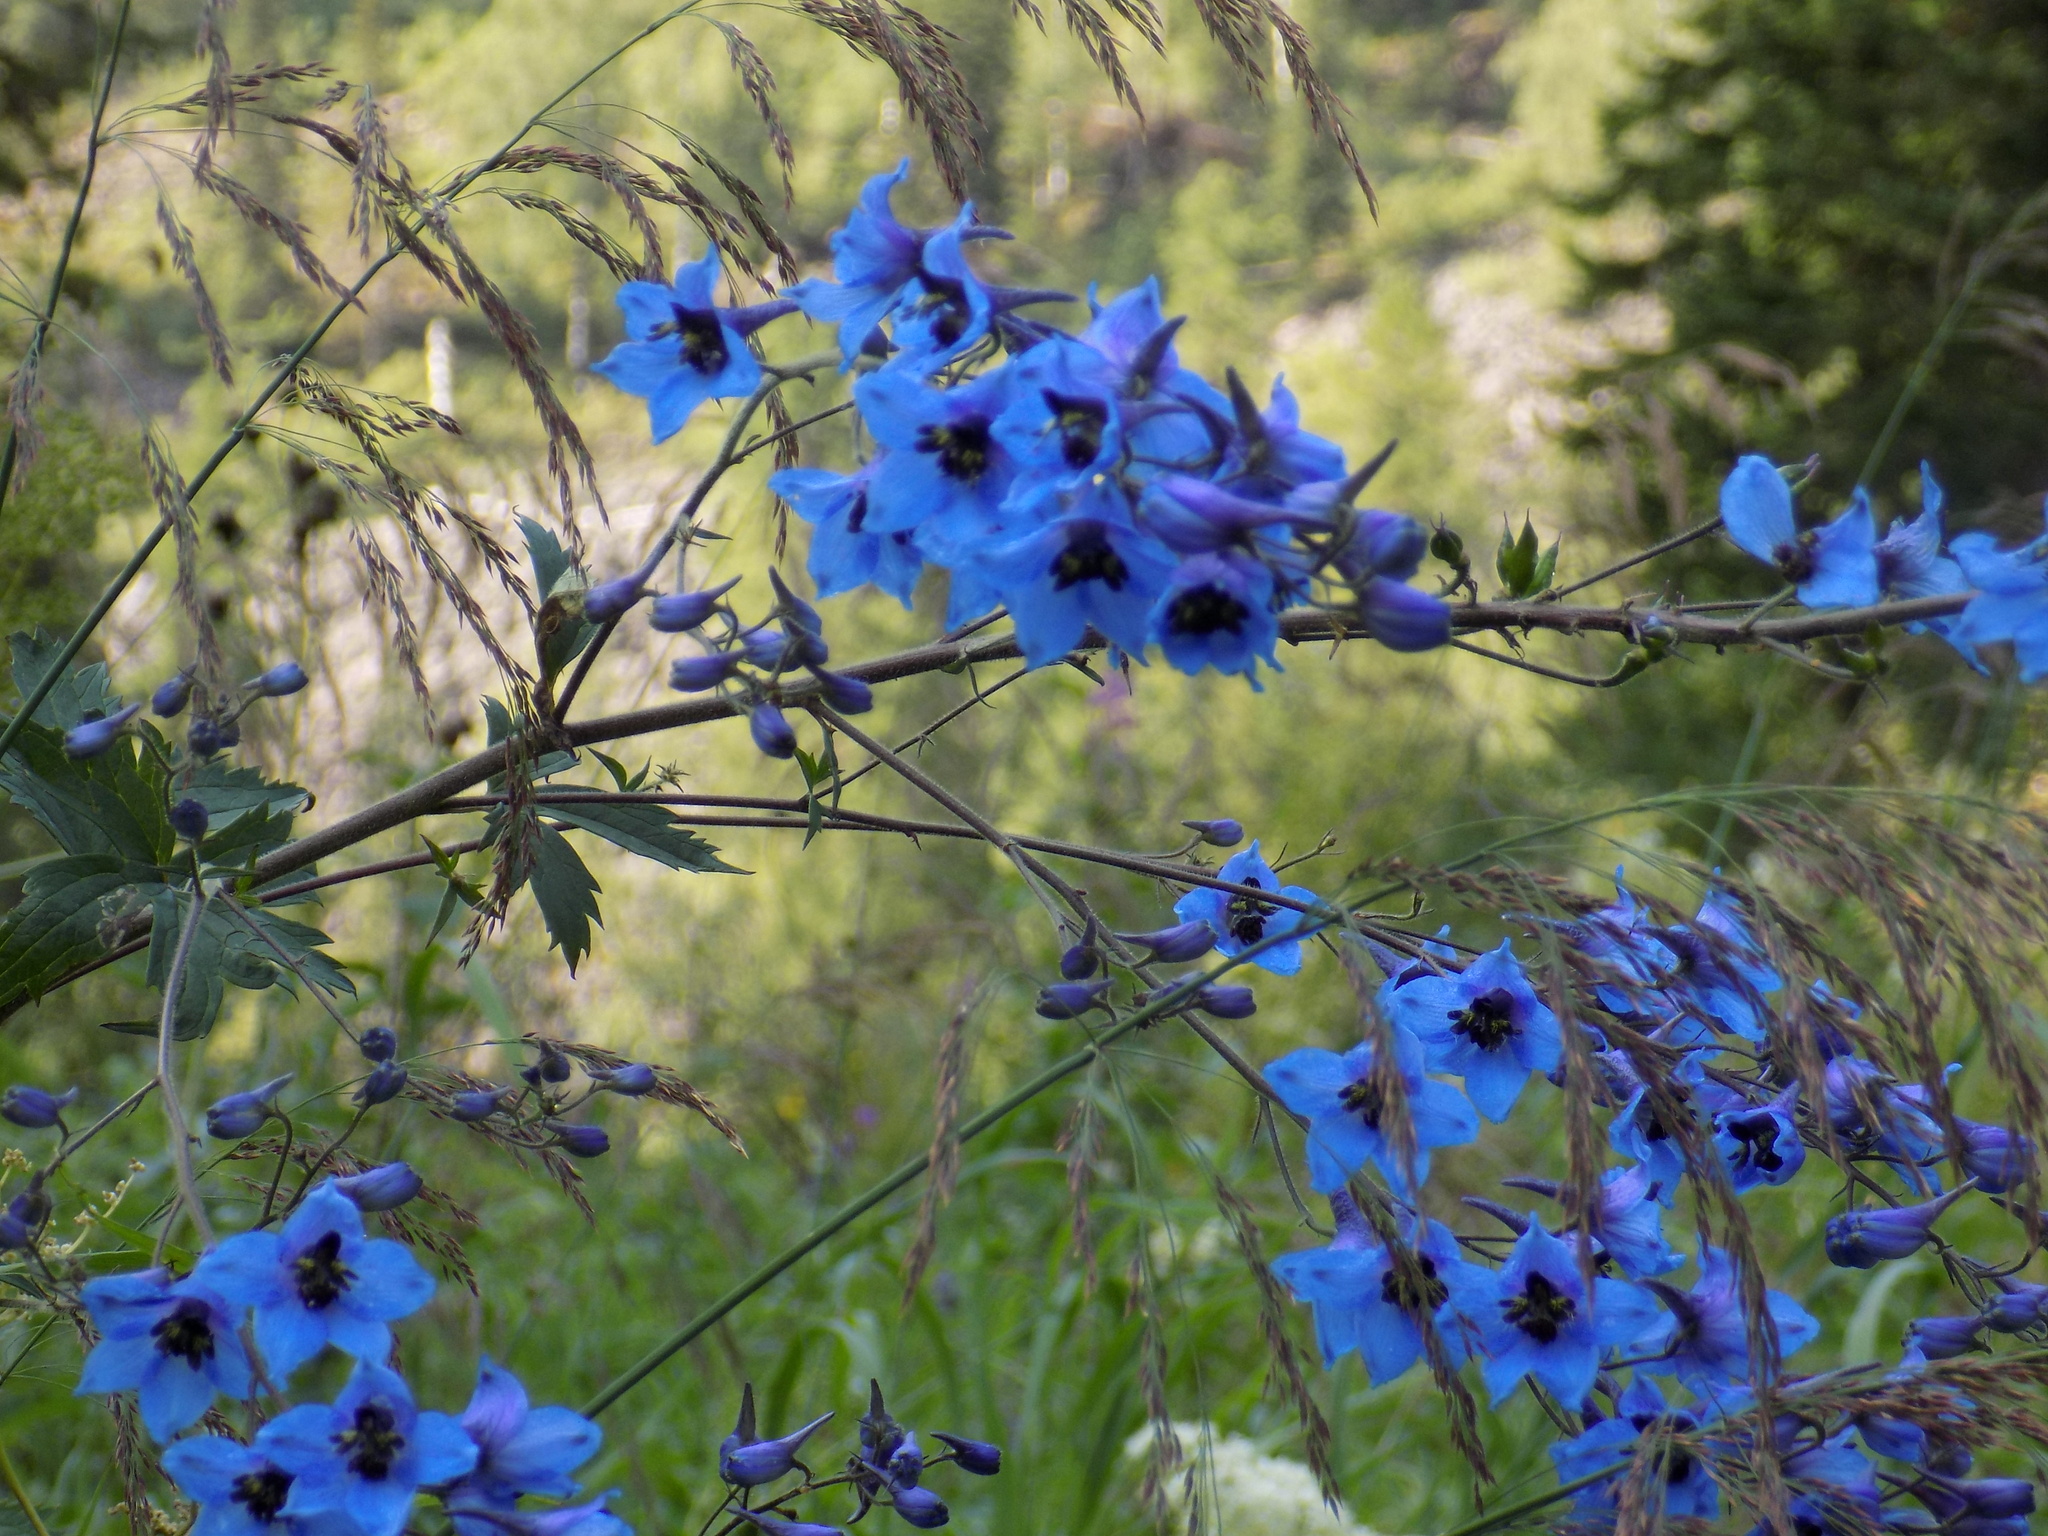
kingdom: Plantae
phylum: Tracheophyta
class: Magnoliopsida
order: Ranunculales
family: Ranunculaceae
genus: Delphinium
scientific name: Delphinium elatum
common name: Candle larkspur
